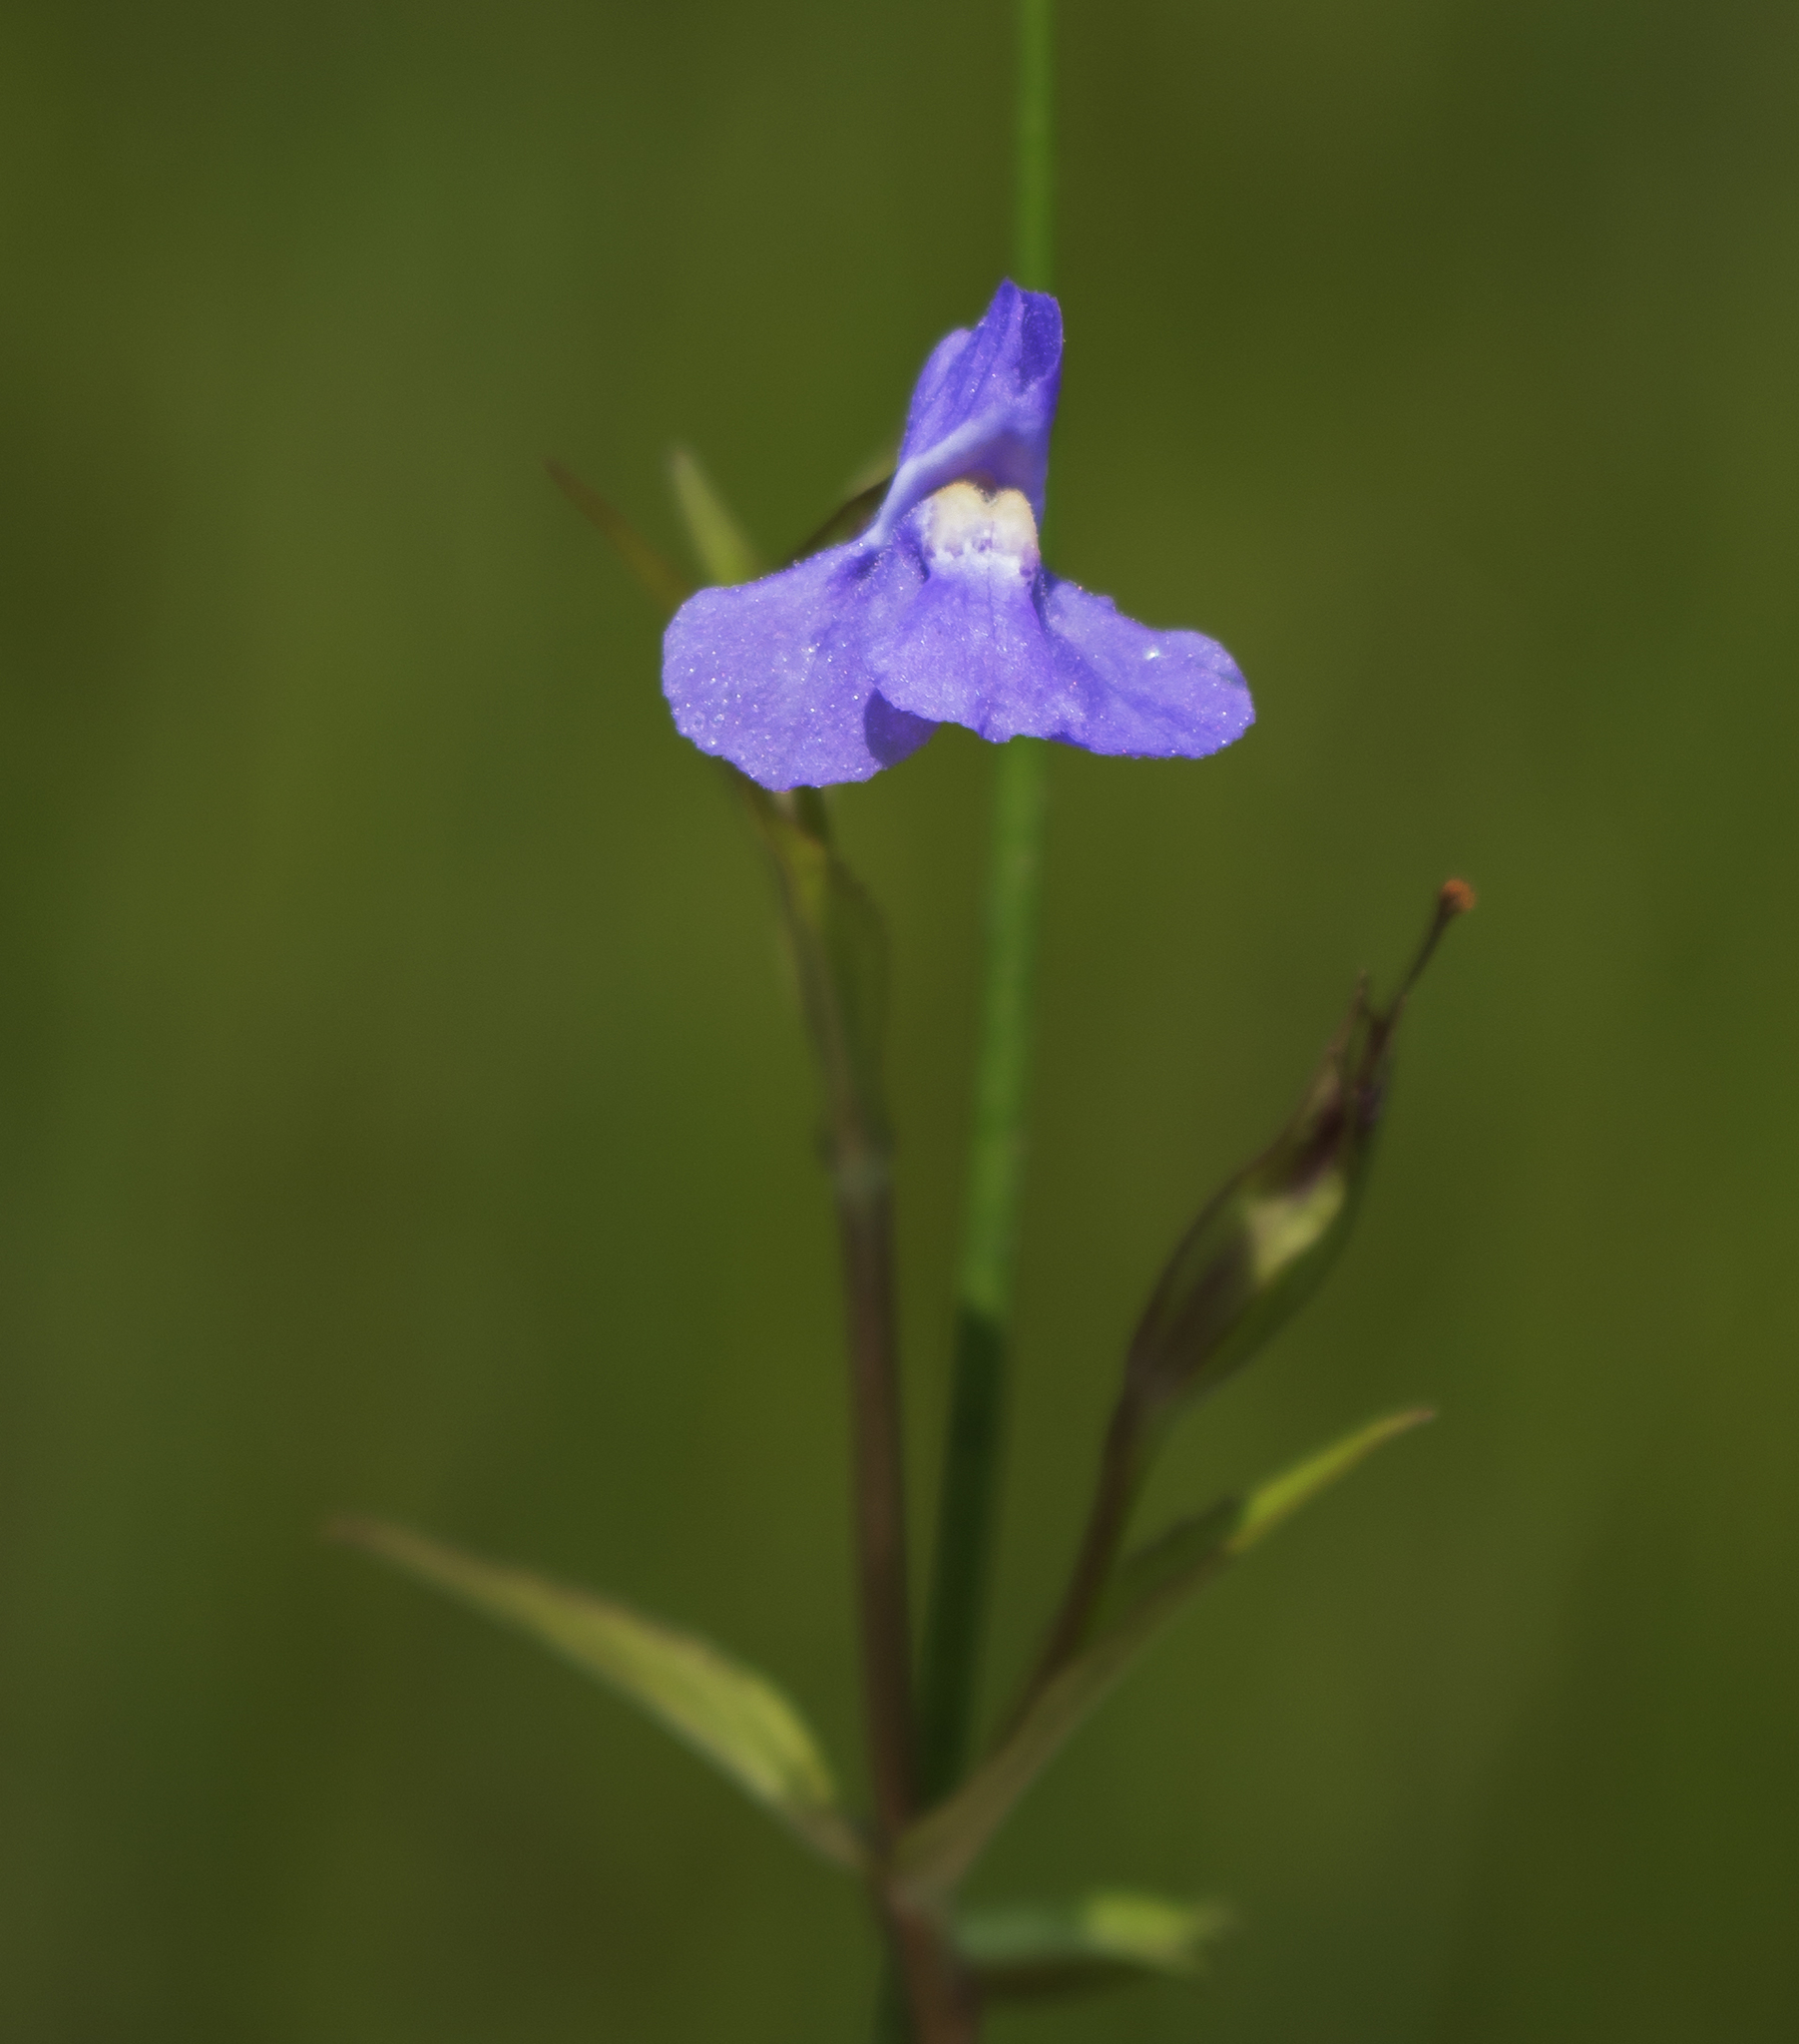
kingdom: Plantae
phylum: Tracheophyta
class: Magnoliopsida
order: Lamiales
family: Phrymaceae
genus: Mimulus
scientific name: Mimulus ringens
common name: Allegheny monkeyflower
